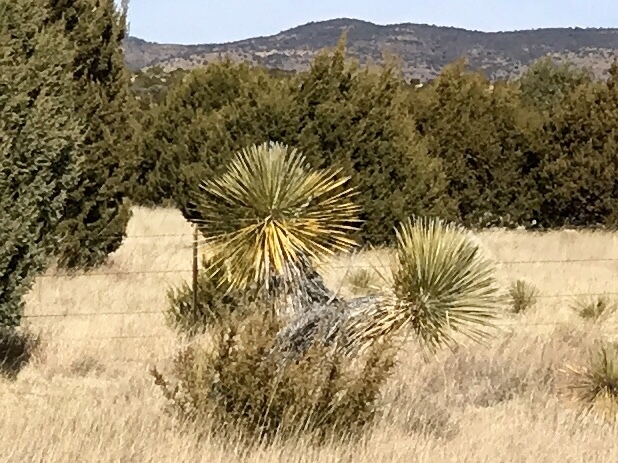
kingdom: Plantae
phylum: Tracheophyta
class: Liliopsida
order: Asparagales
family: Asparagaceae
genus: Yucca
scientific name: Yucca elata
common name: Palmella
